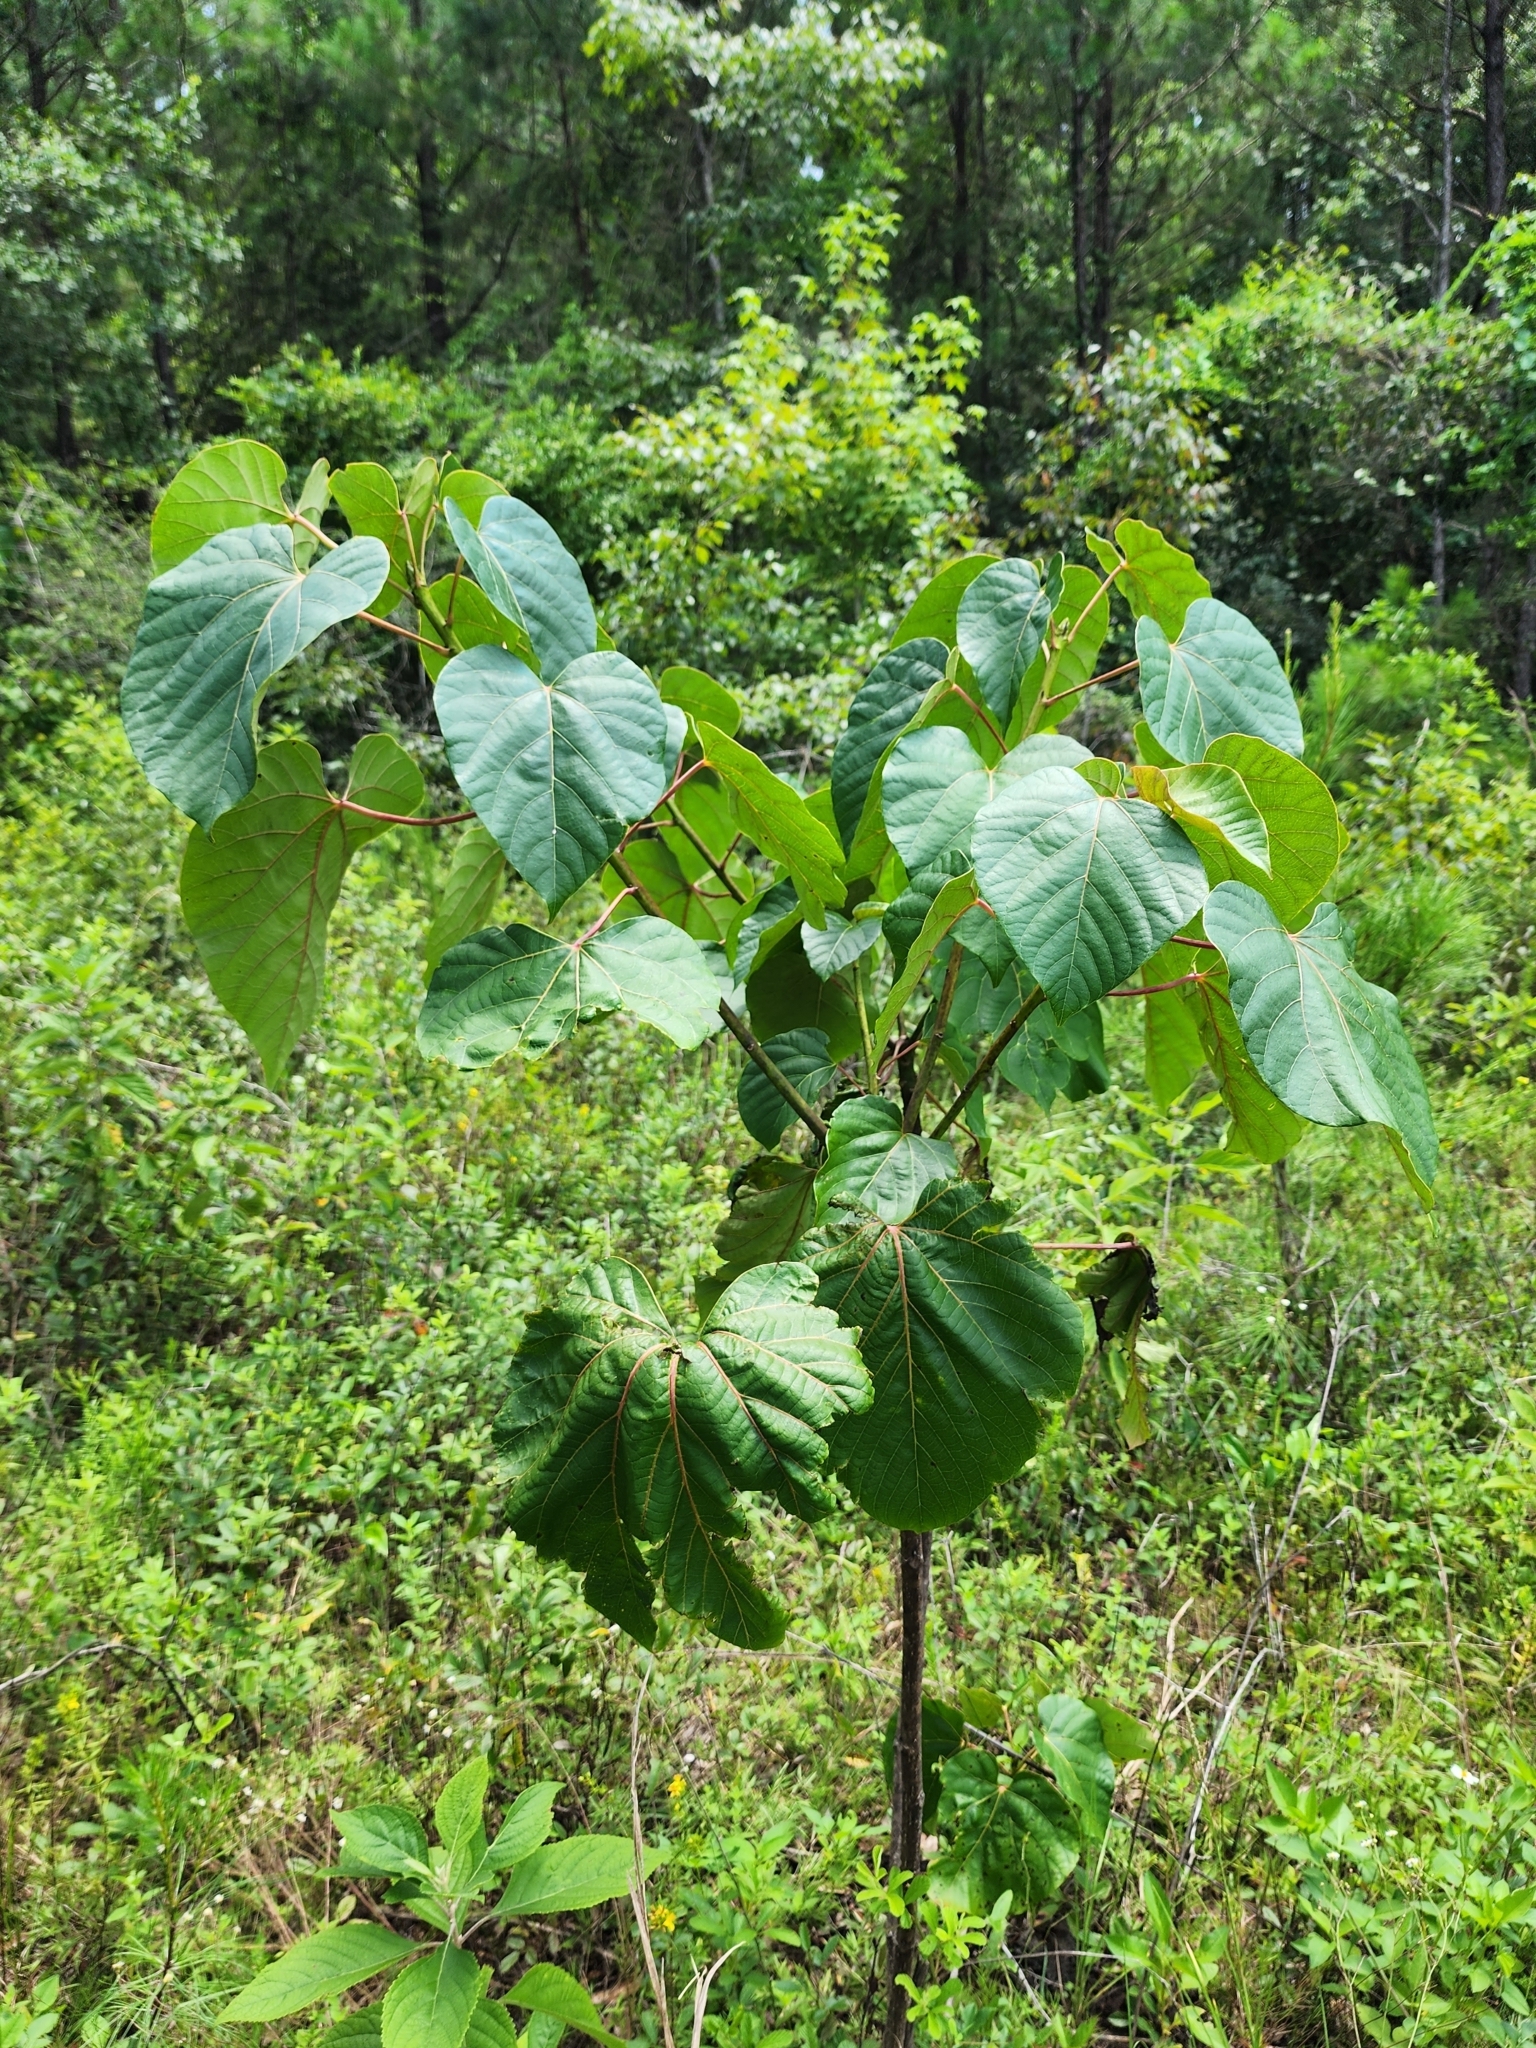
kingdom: Plantae
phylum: Tracheophyta
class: Magnoliopsida
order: Malpighiales
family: Euphorbiaceae
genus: Vernicia
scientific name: Vernicia fordii
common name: Tungoil tree
